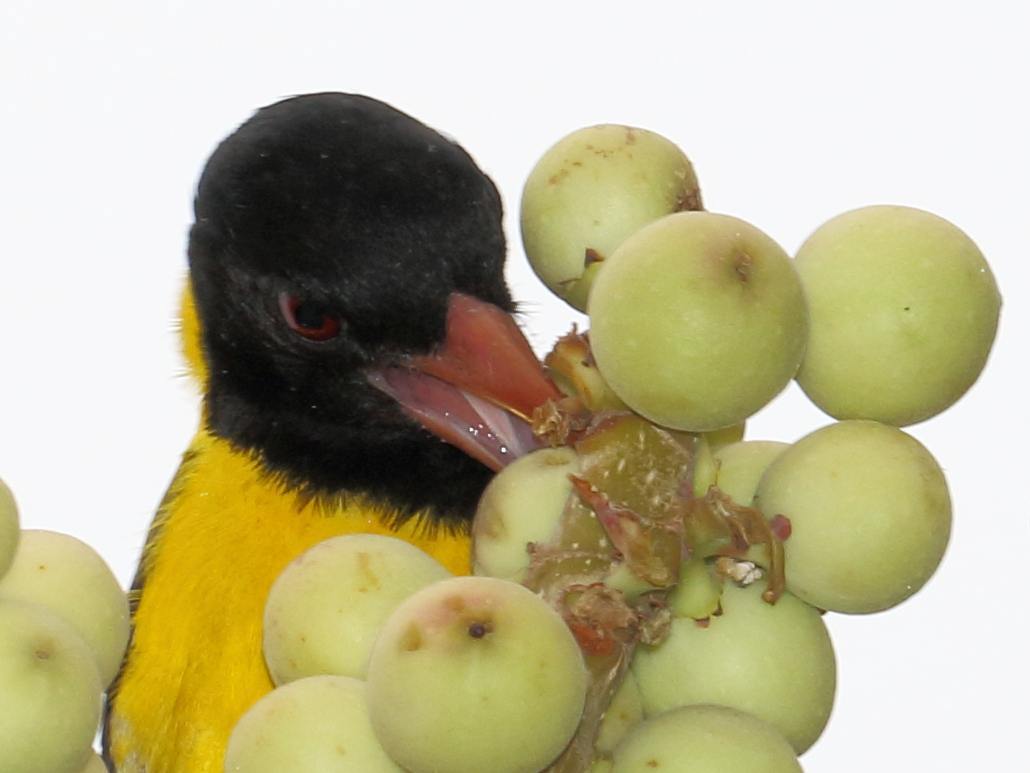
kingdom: Plantae
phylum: Tracheophyta
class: Magnoliopsida
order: Rosales
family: Moraceae
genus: Ficus
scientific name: Ficus abutilifolia
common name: Large-leaved rock fig
